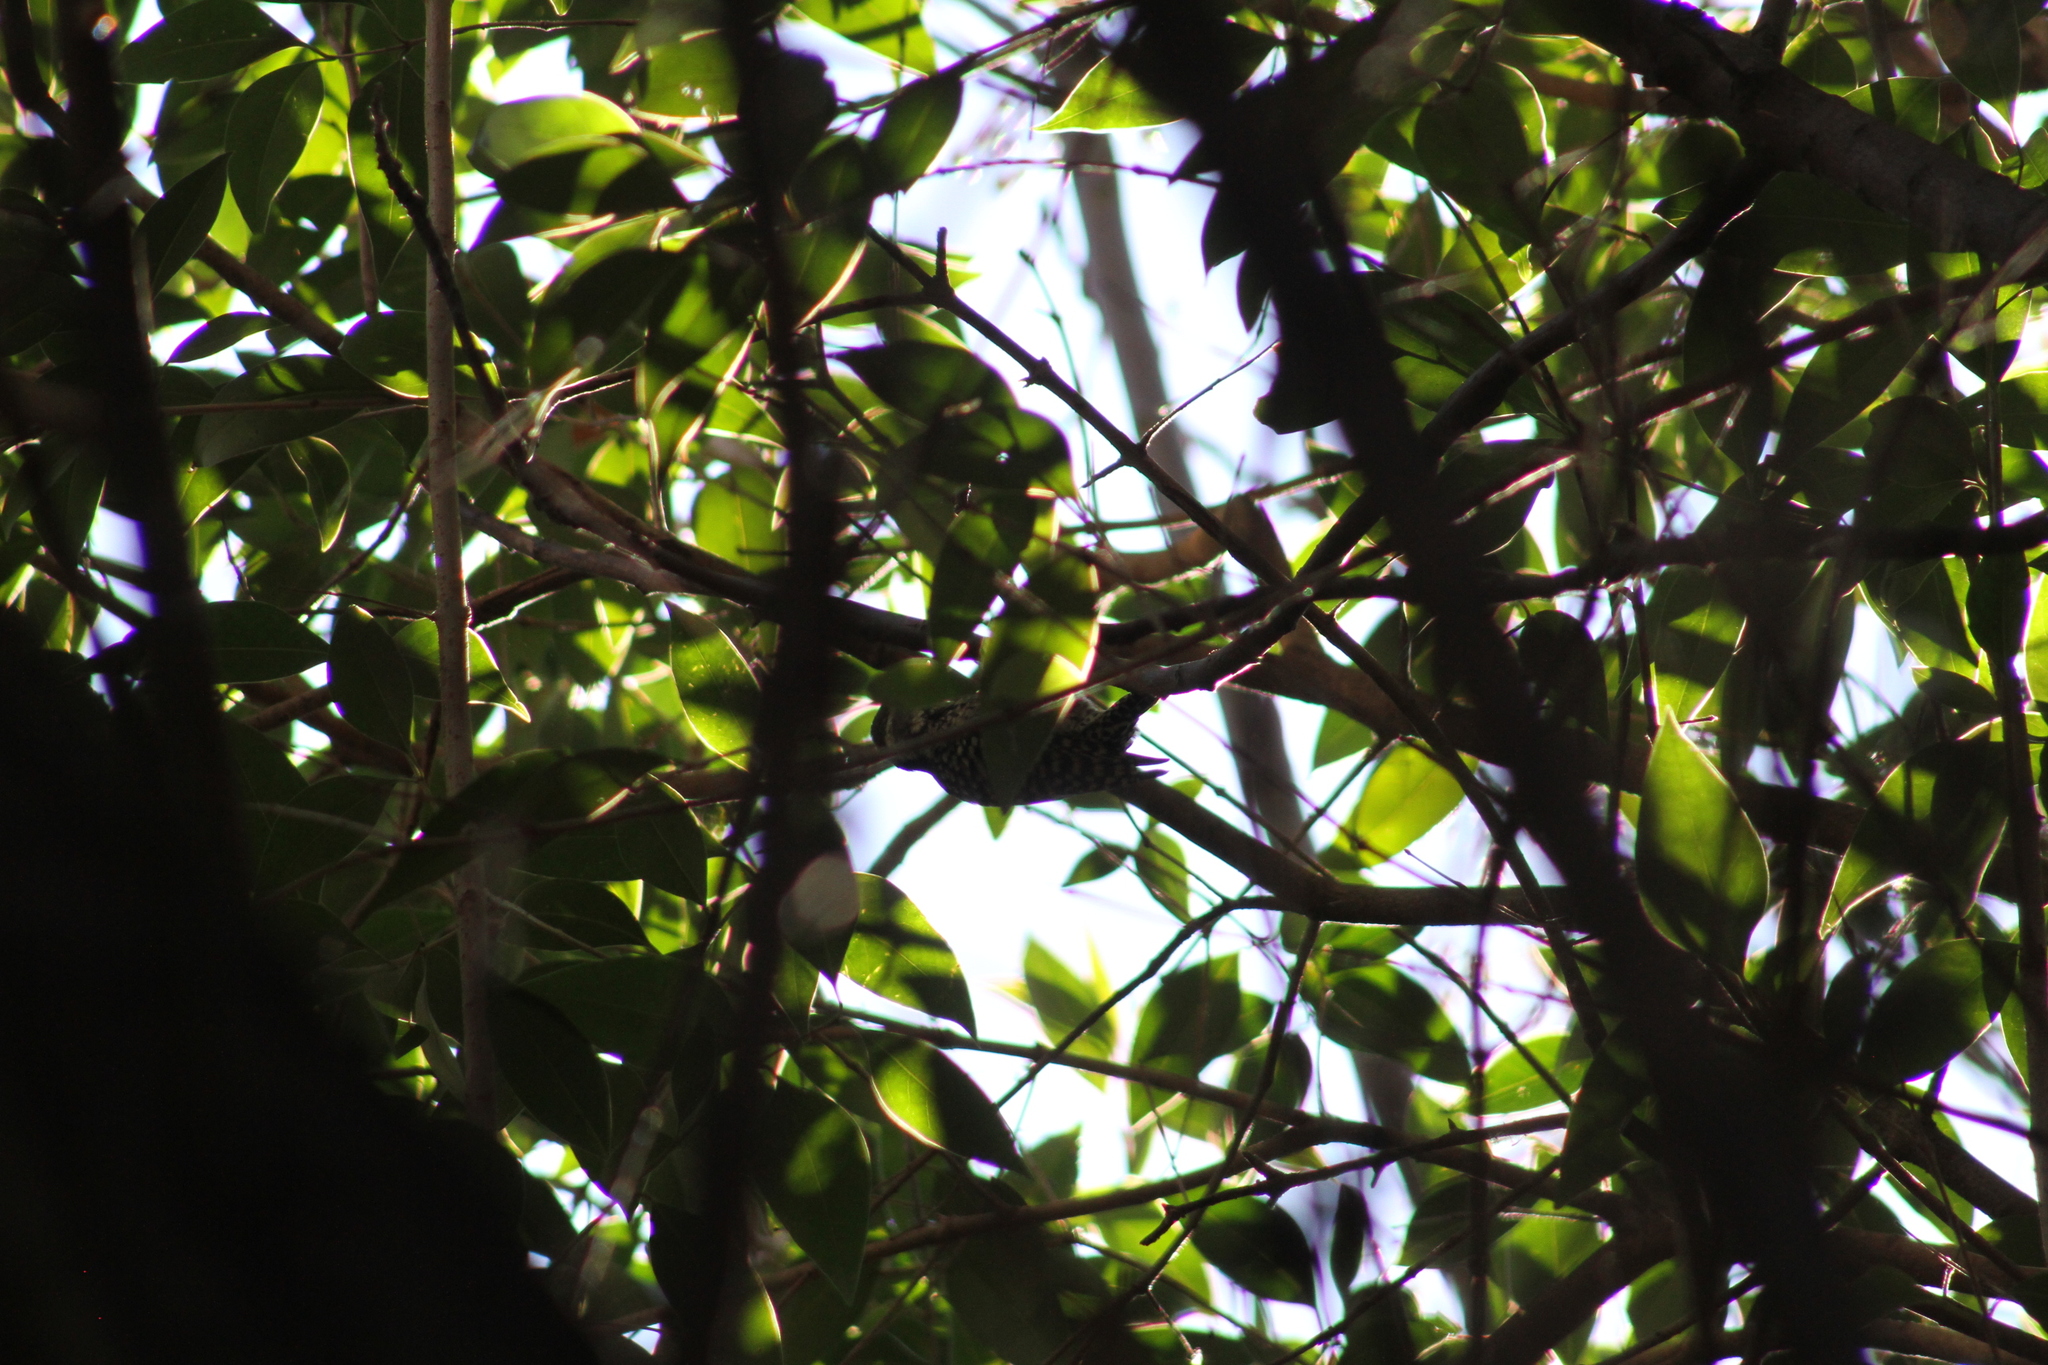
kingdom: Animalia
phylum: Chordata
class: Aves
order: Piciformes
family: Picidae
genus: Veniliornis
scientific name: Veniliornis mixtus
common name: Checkered woodpecker
